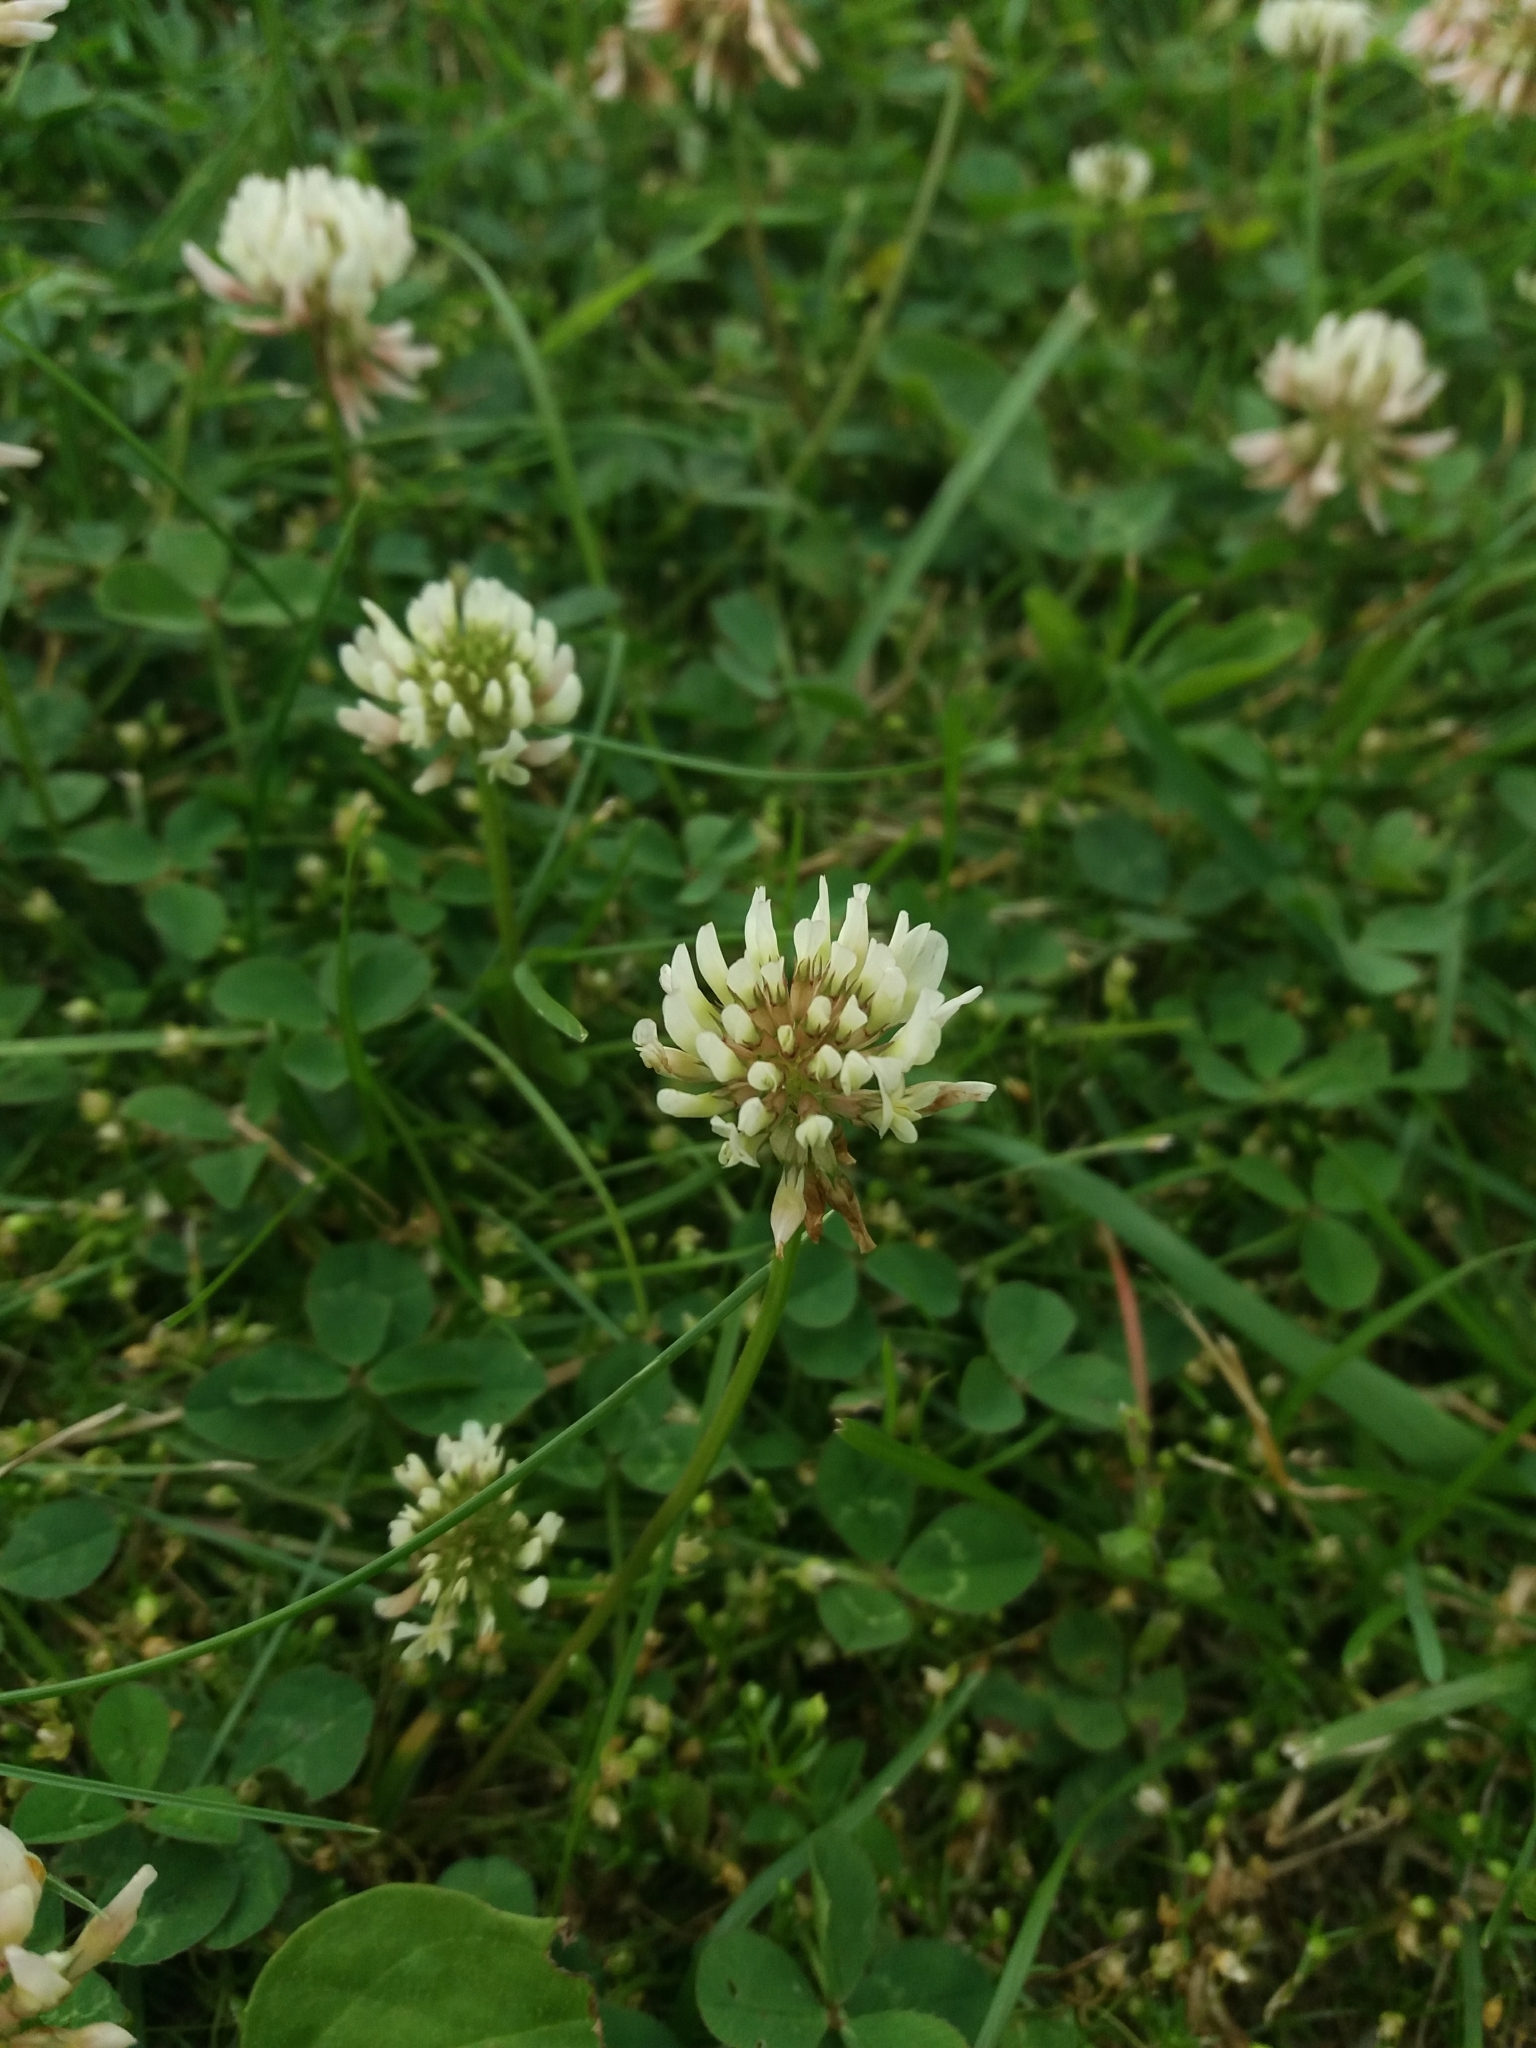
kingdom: Plantae
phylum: Tracheophyta
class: Magnoliopsida
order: Fabales
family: Fabaceae
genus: Trifolium
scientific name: Trifolium repens
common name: White clover
